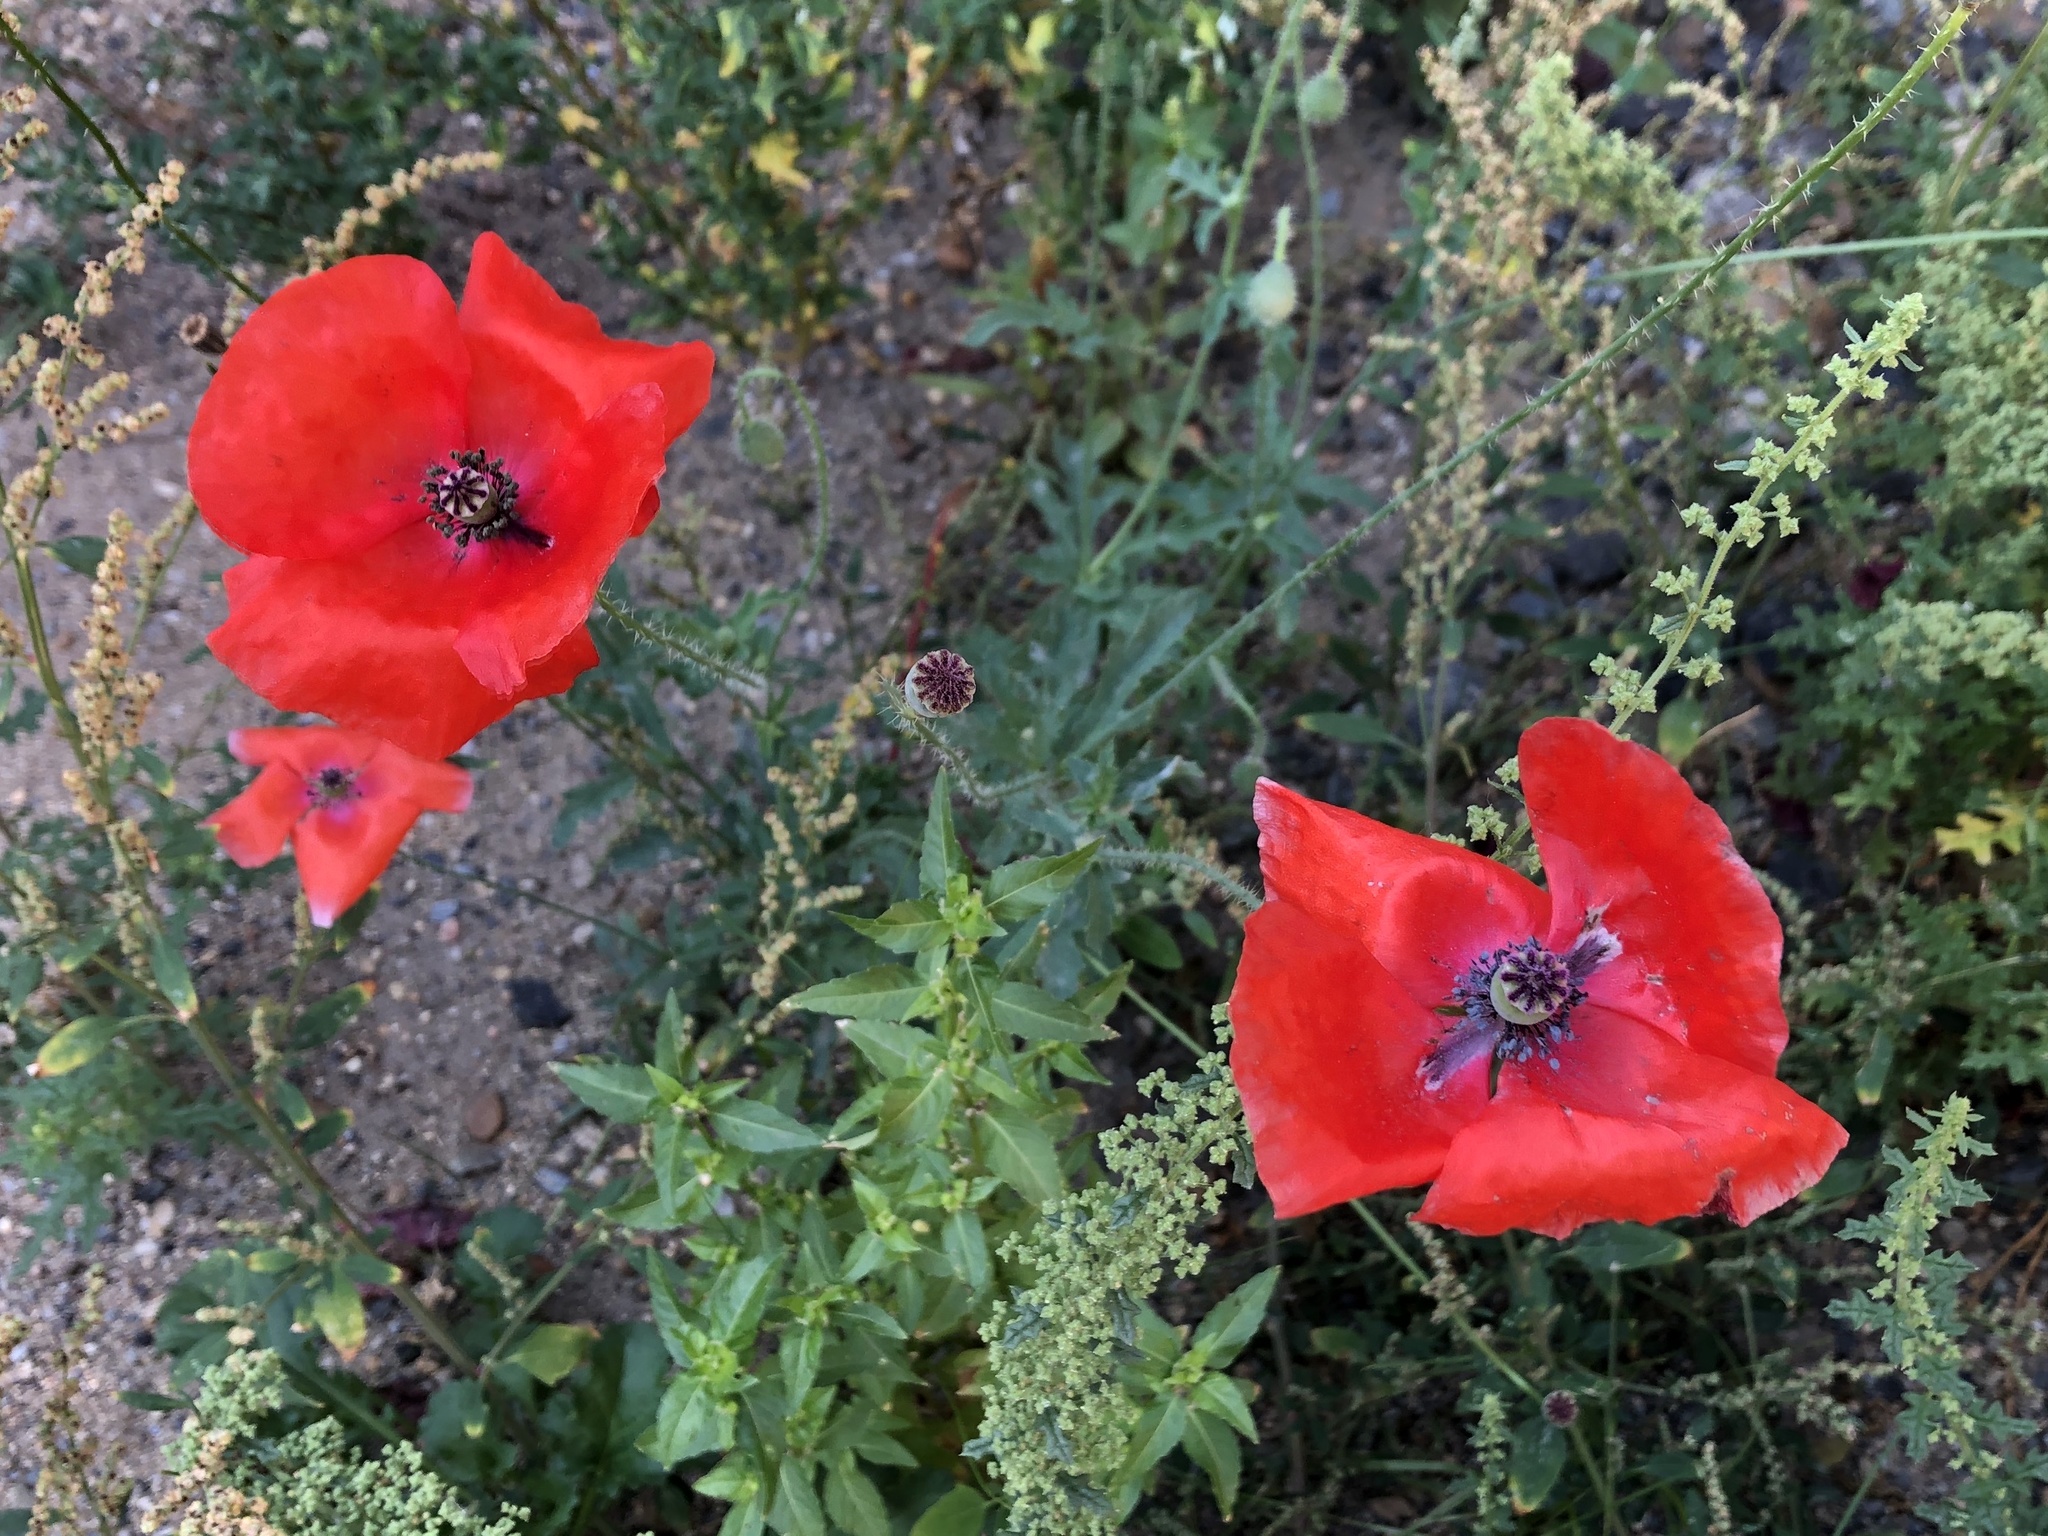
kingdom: Plantae
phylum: Tracheophyta
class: Magnoliopsida
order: Ranunculales
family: Papaveraceae
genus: Papaver
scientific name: Papaver rhoeas
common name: Corn poppy
